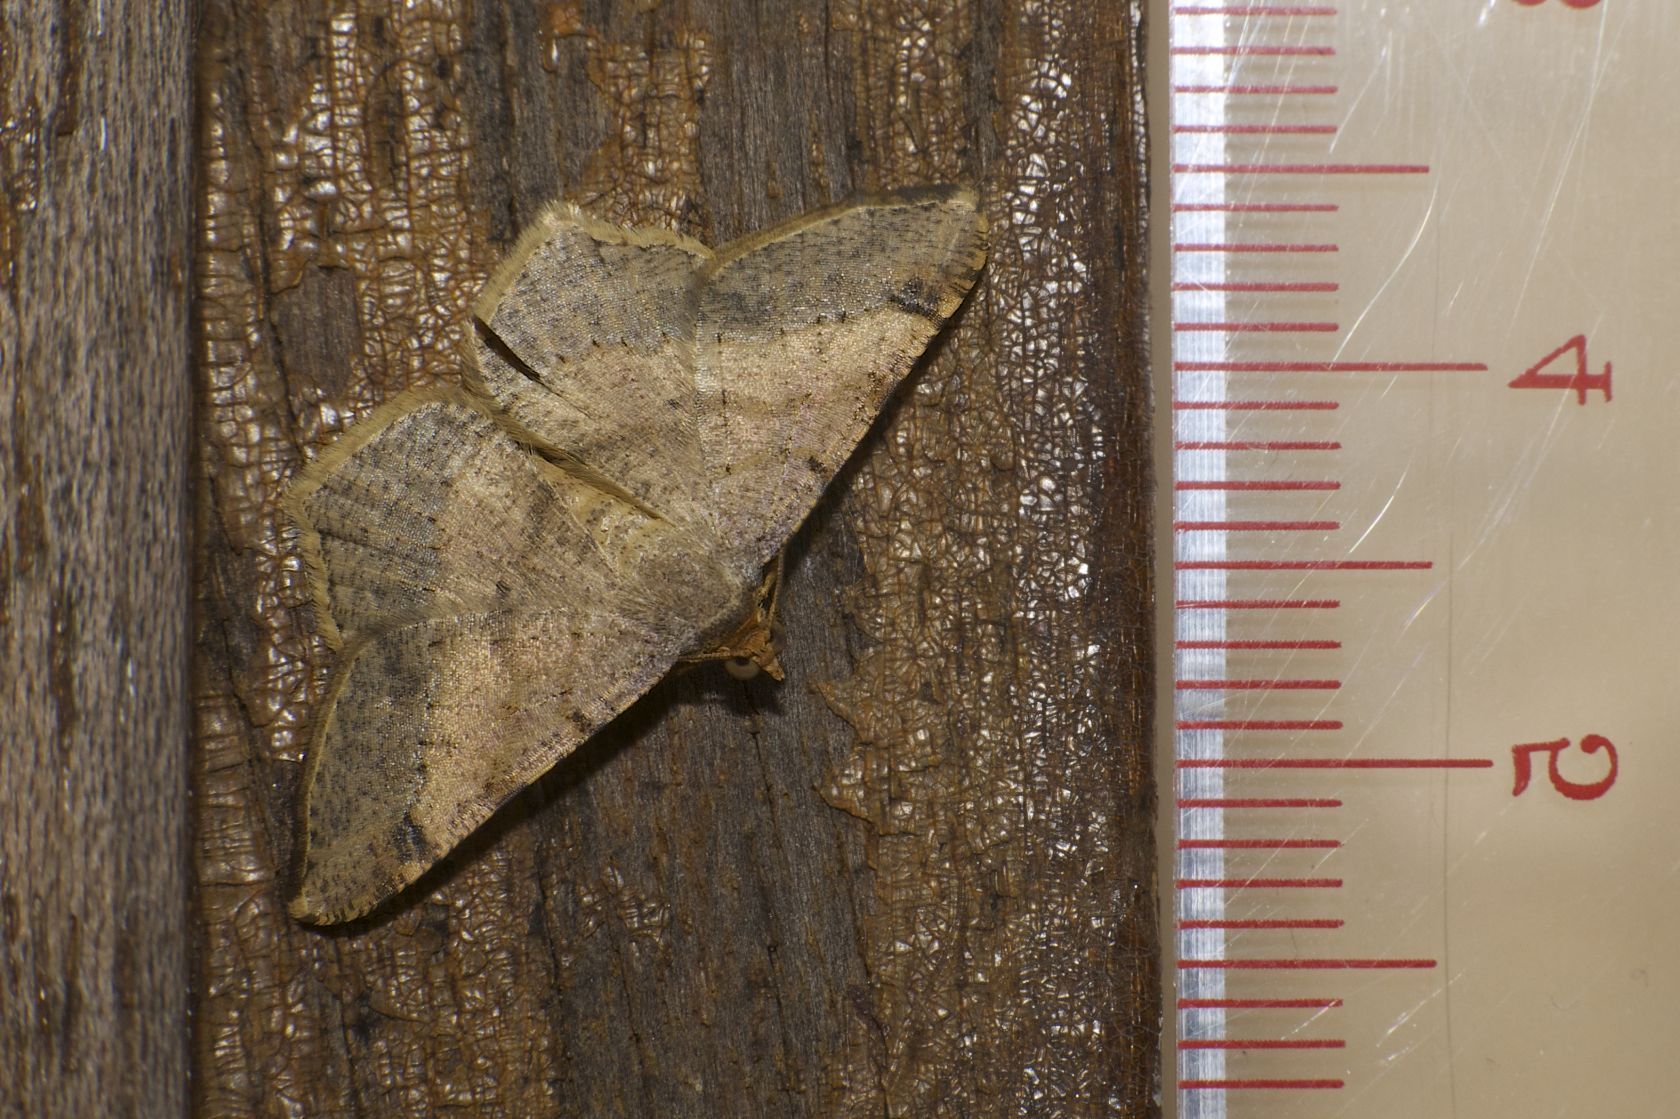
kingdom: Animalia
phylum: Arthropoda
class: Insecta
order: Lepidoptera
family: Geometridae
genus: Macaria
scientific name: Macaria abydata
